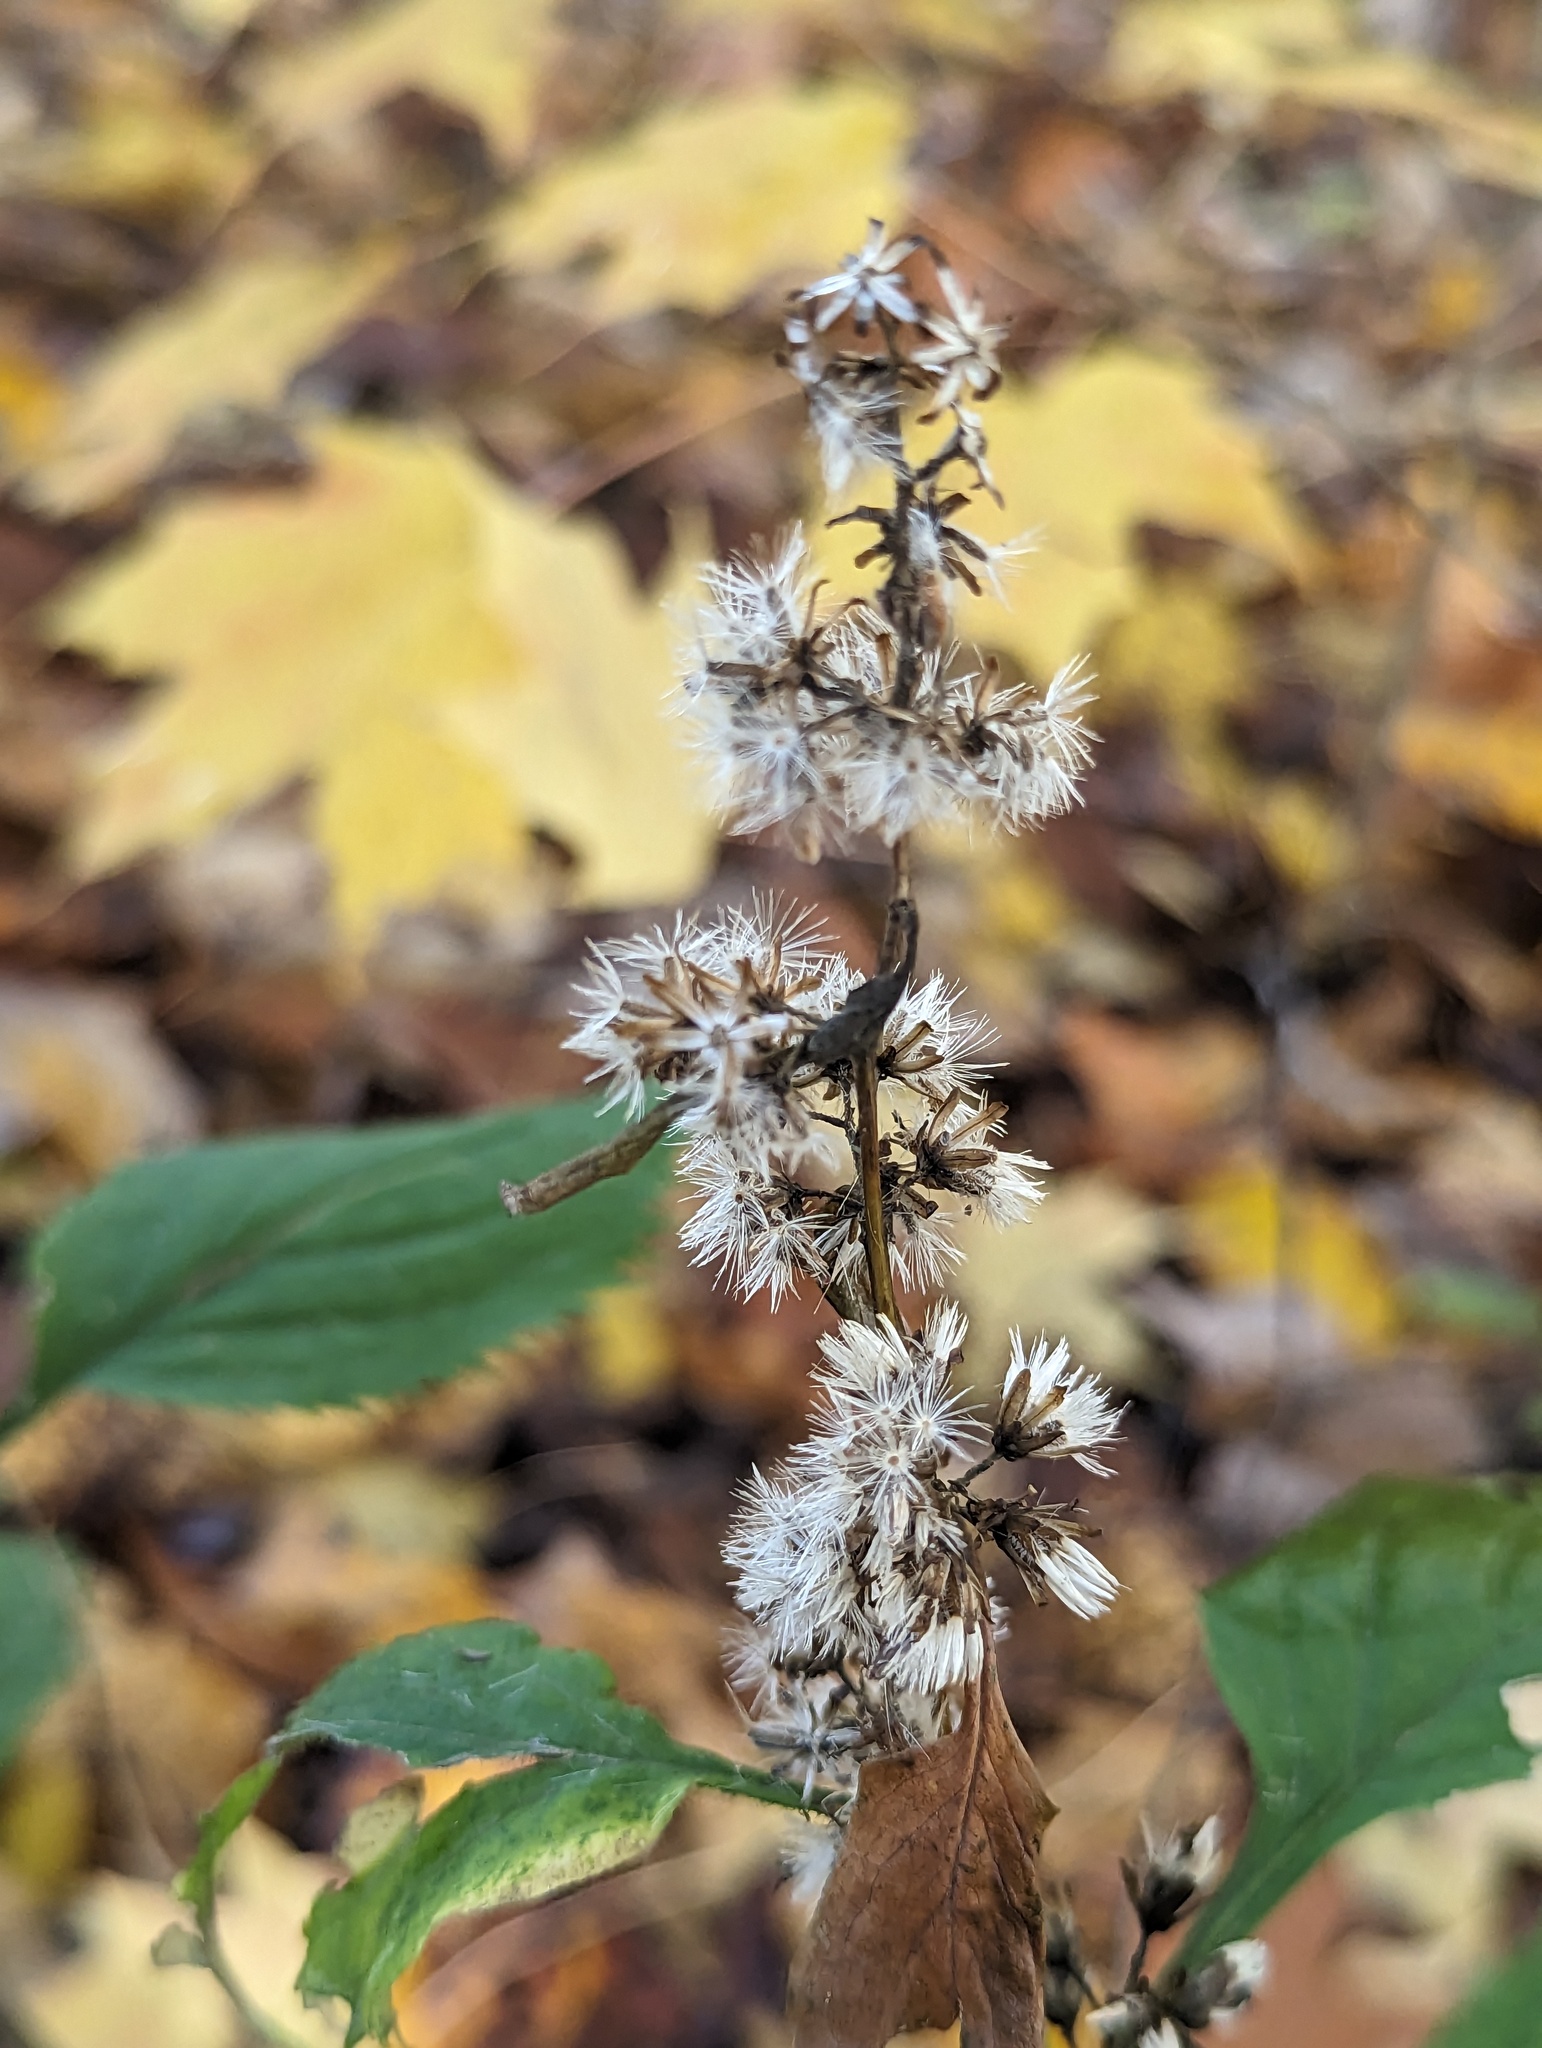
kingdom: Plantae
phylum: Tracheophyta
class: Magnoliopsida
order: Asterales
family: Asteraceae
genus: Solidago
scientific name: Solidago flexicaulis
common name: Zig-zag goldenrod
